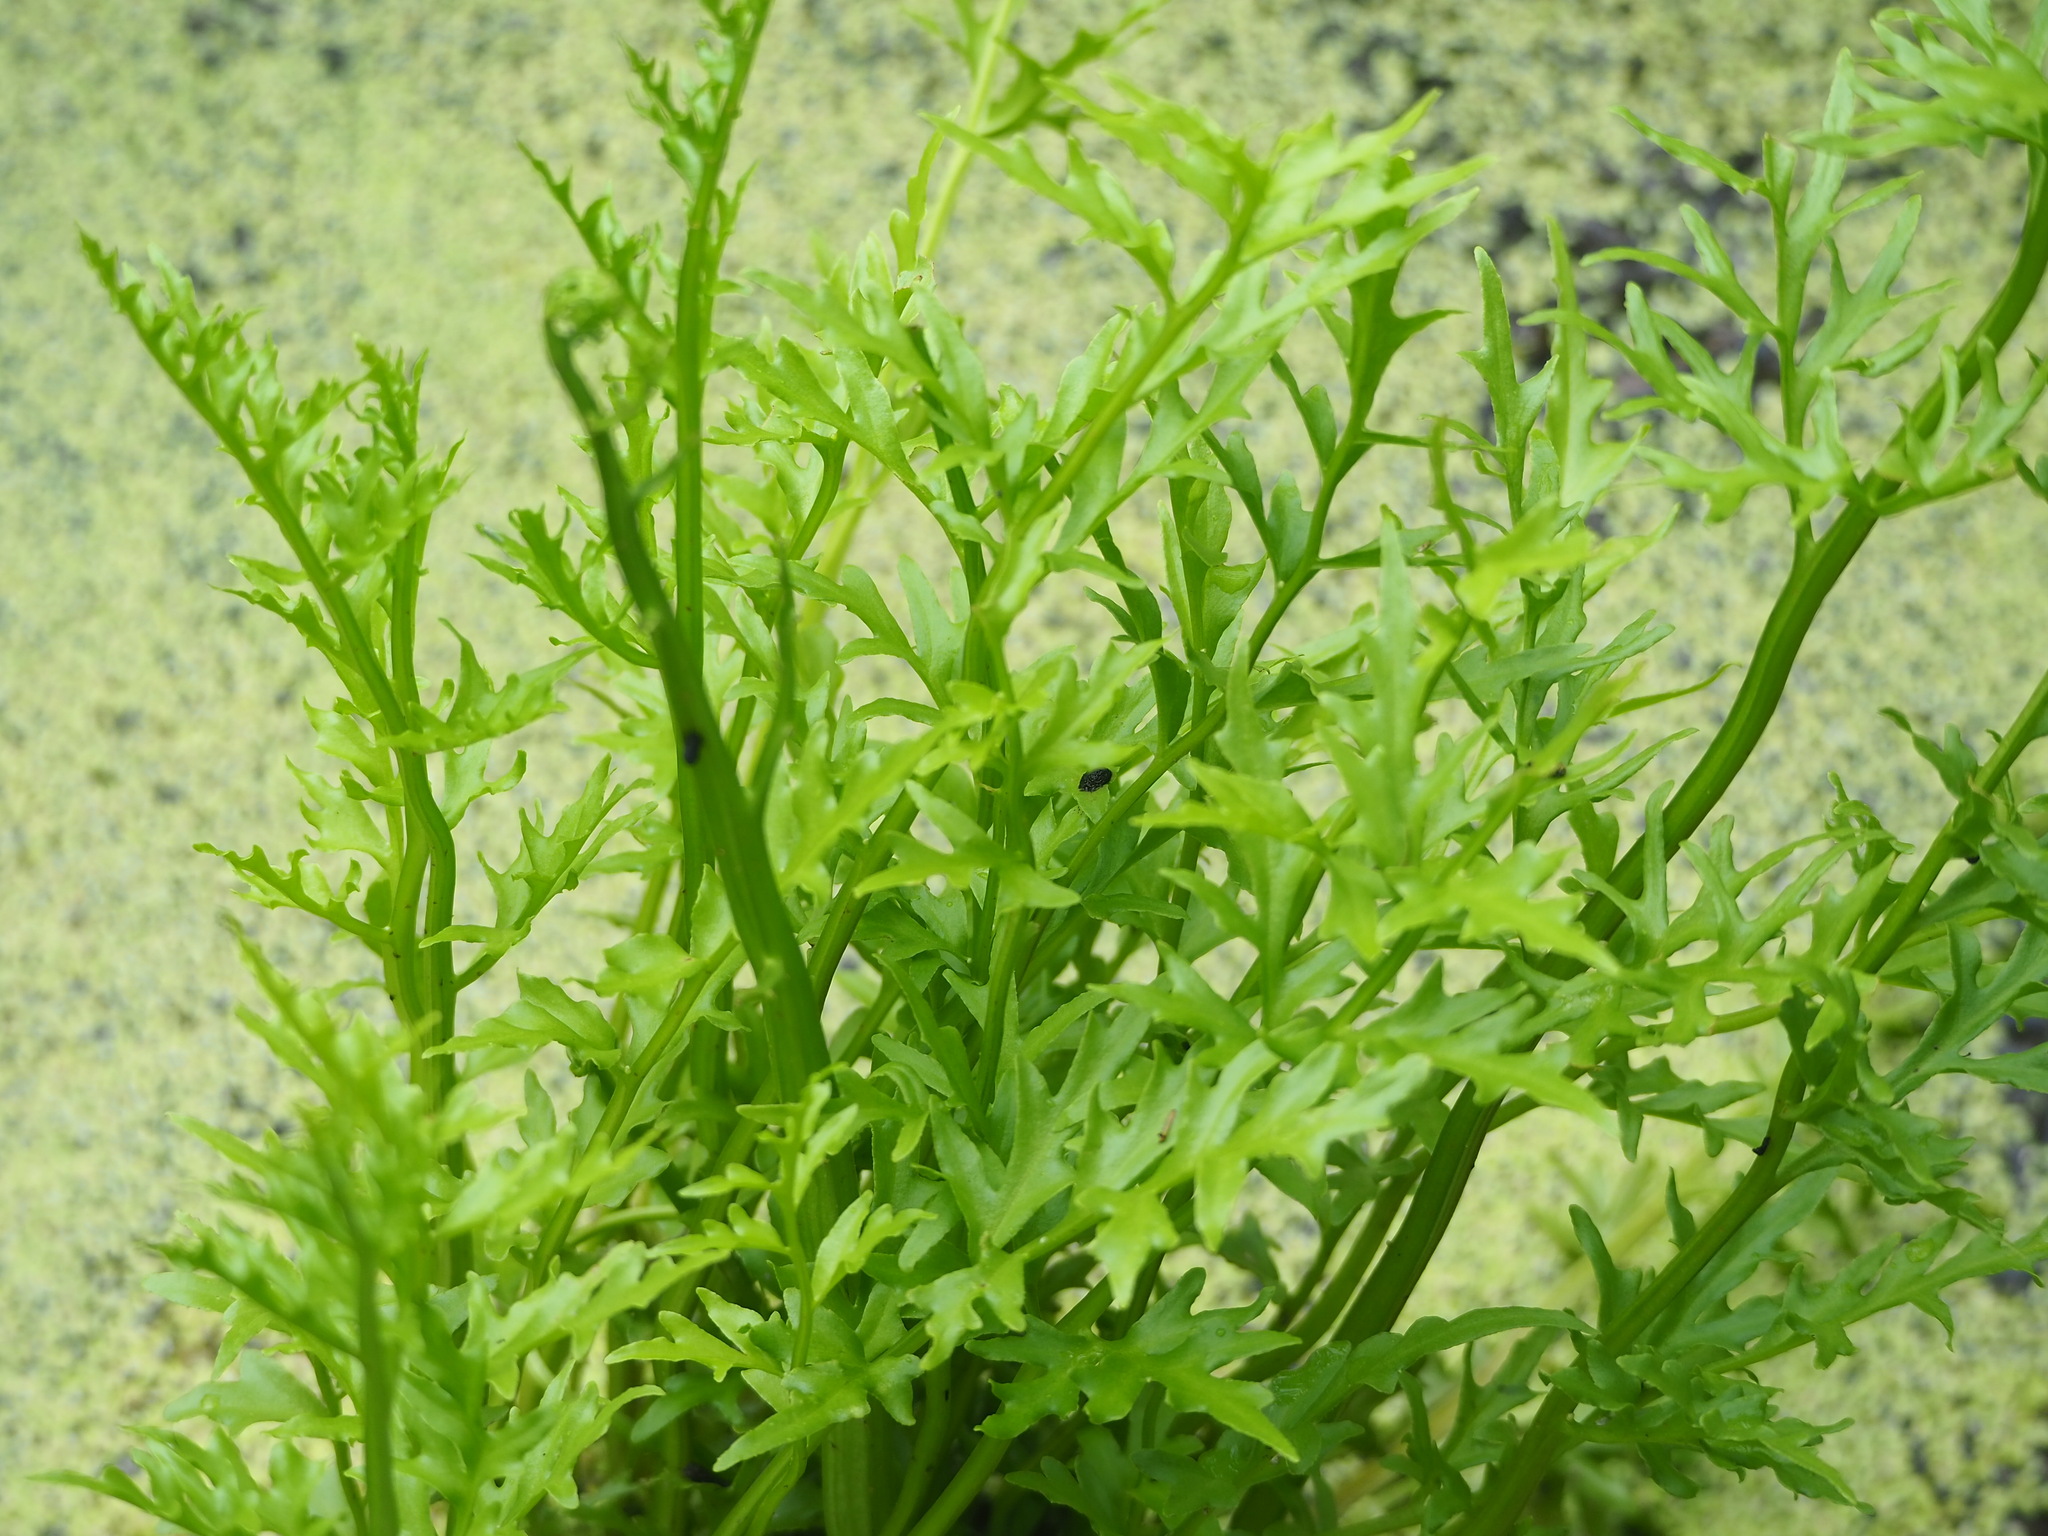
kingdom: Plantae
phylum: Tracheophyta
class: Polypodiopsida
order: Polypodiales
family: Pteridaceae
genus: Ceratopteris
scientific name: Ceratopteris thalictroides
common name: Water fern
